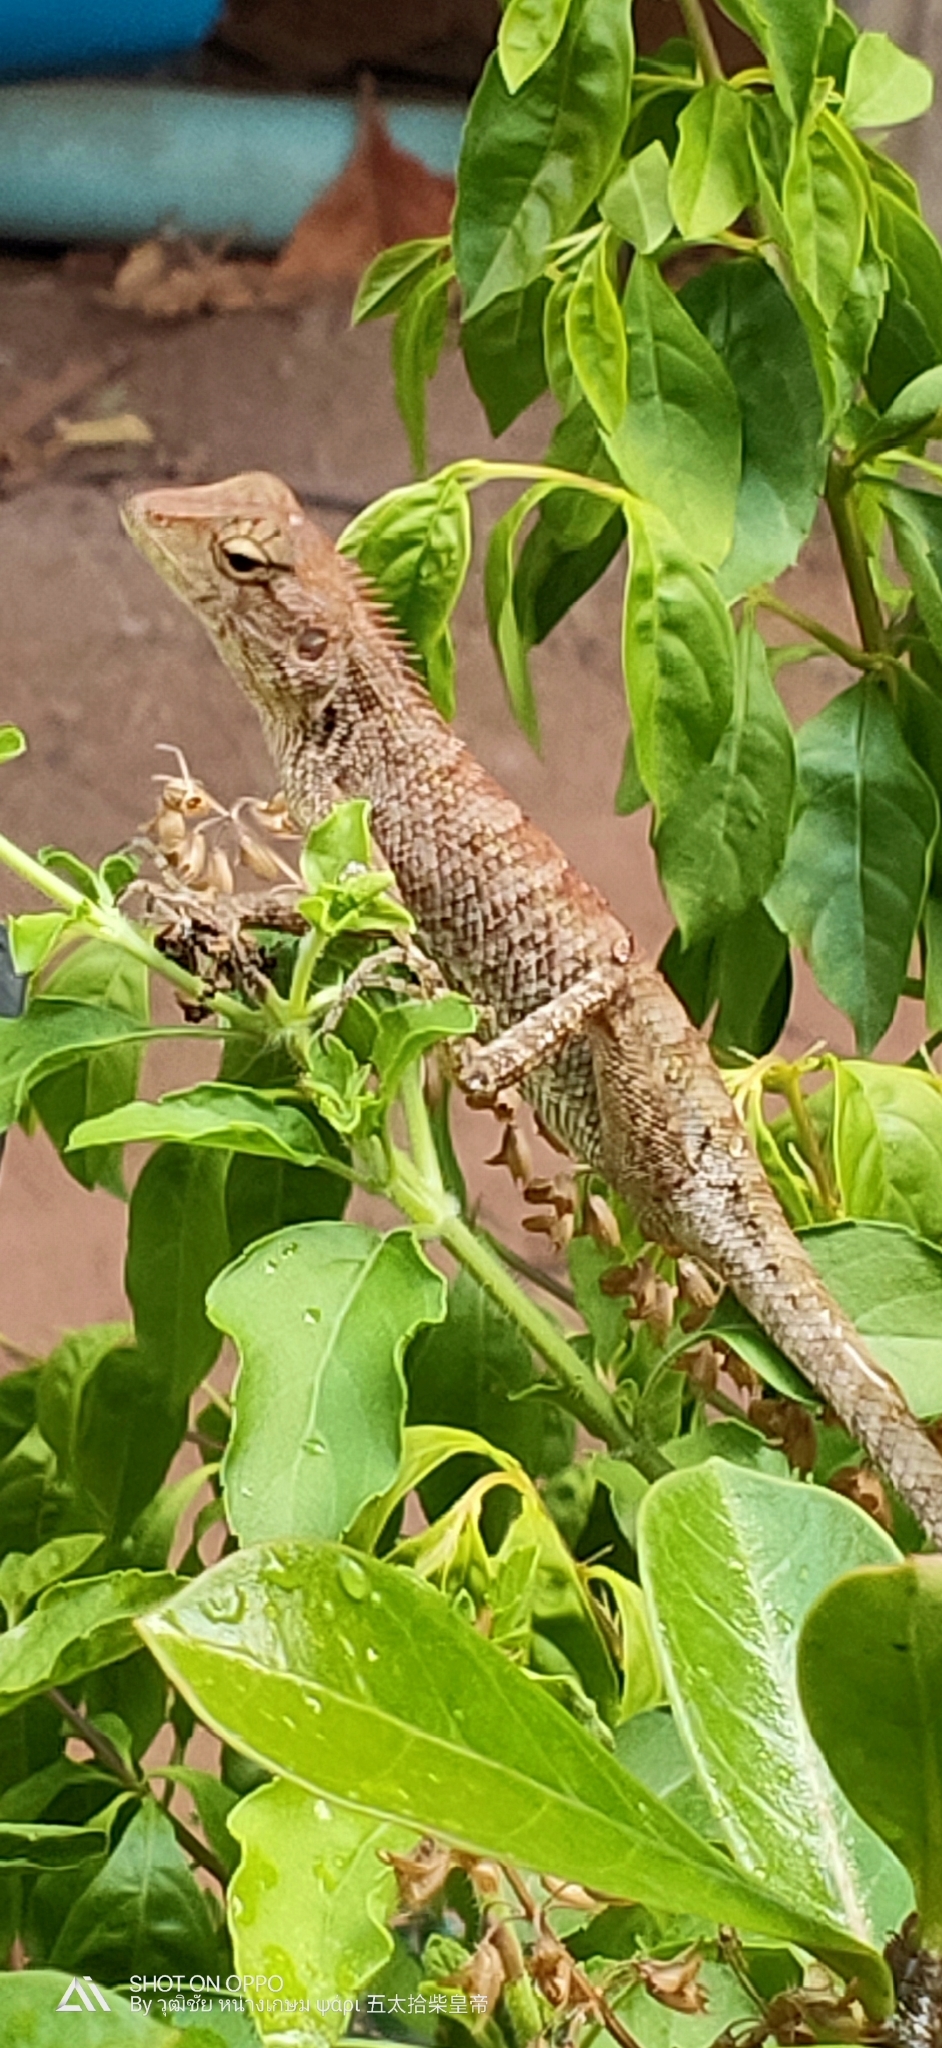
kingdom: Animalia
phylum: Chordata
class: Squamata
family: Agamidae
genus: Calotes
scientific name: Calotes versicolor
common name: Oriental garden lizard
